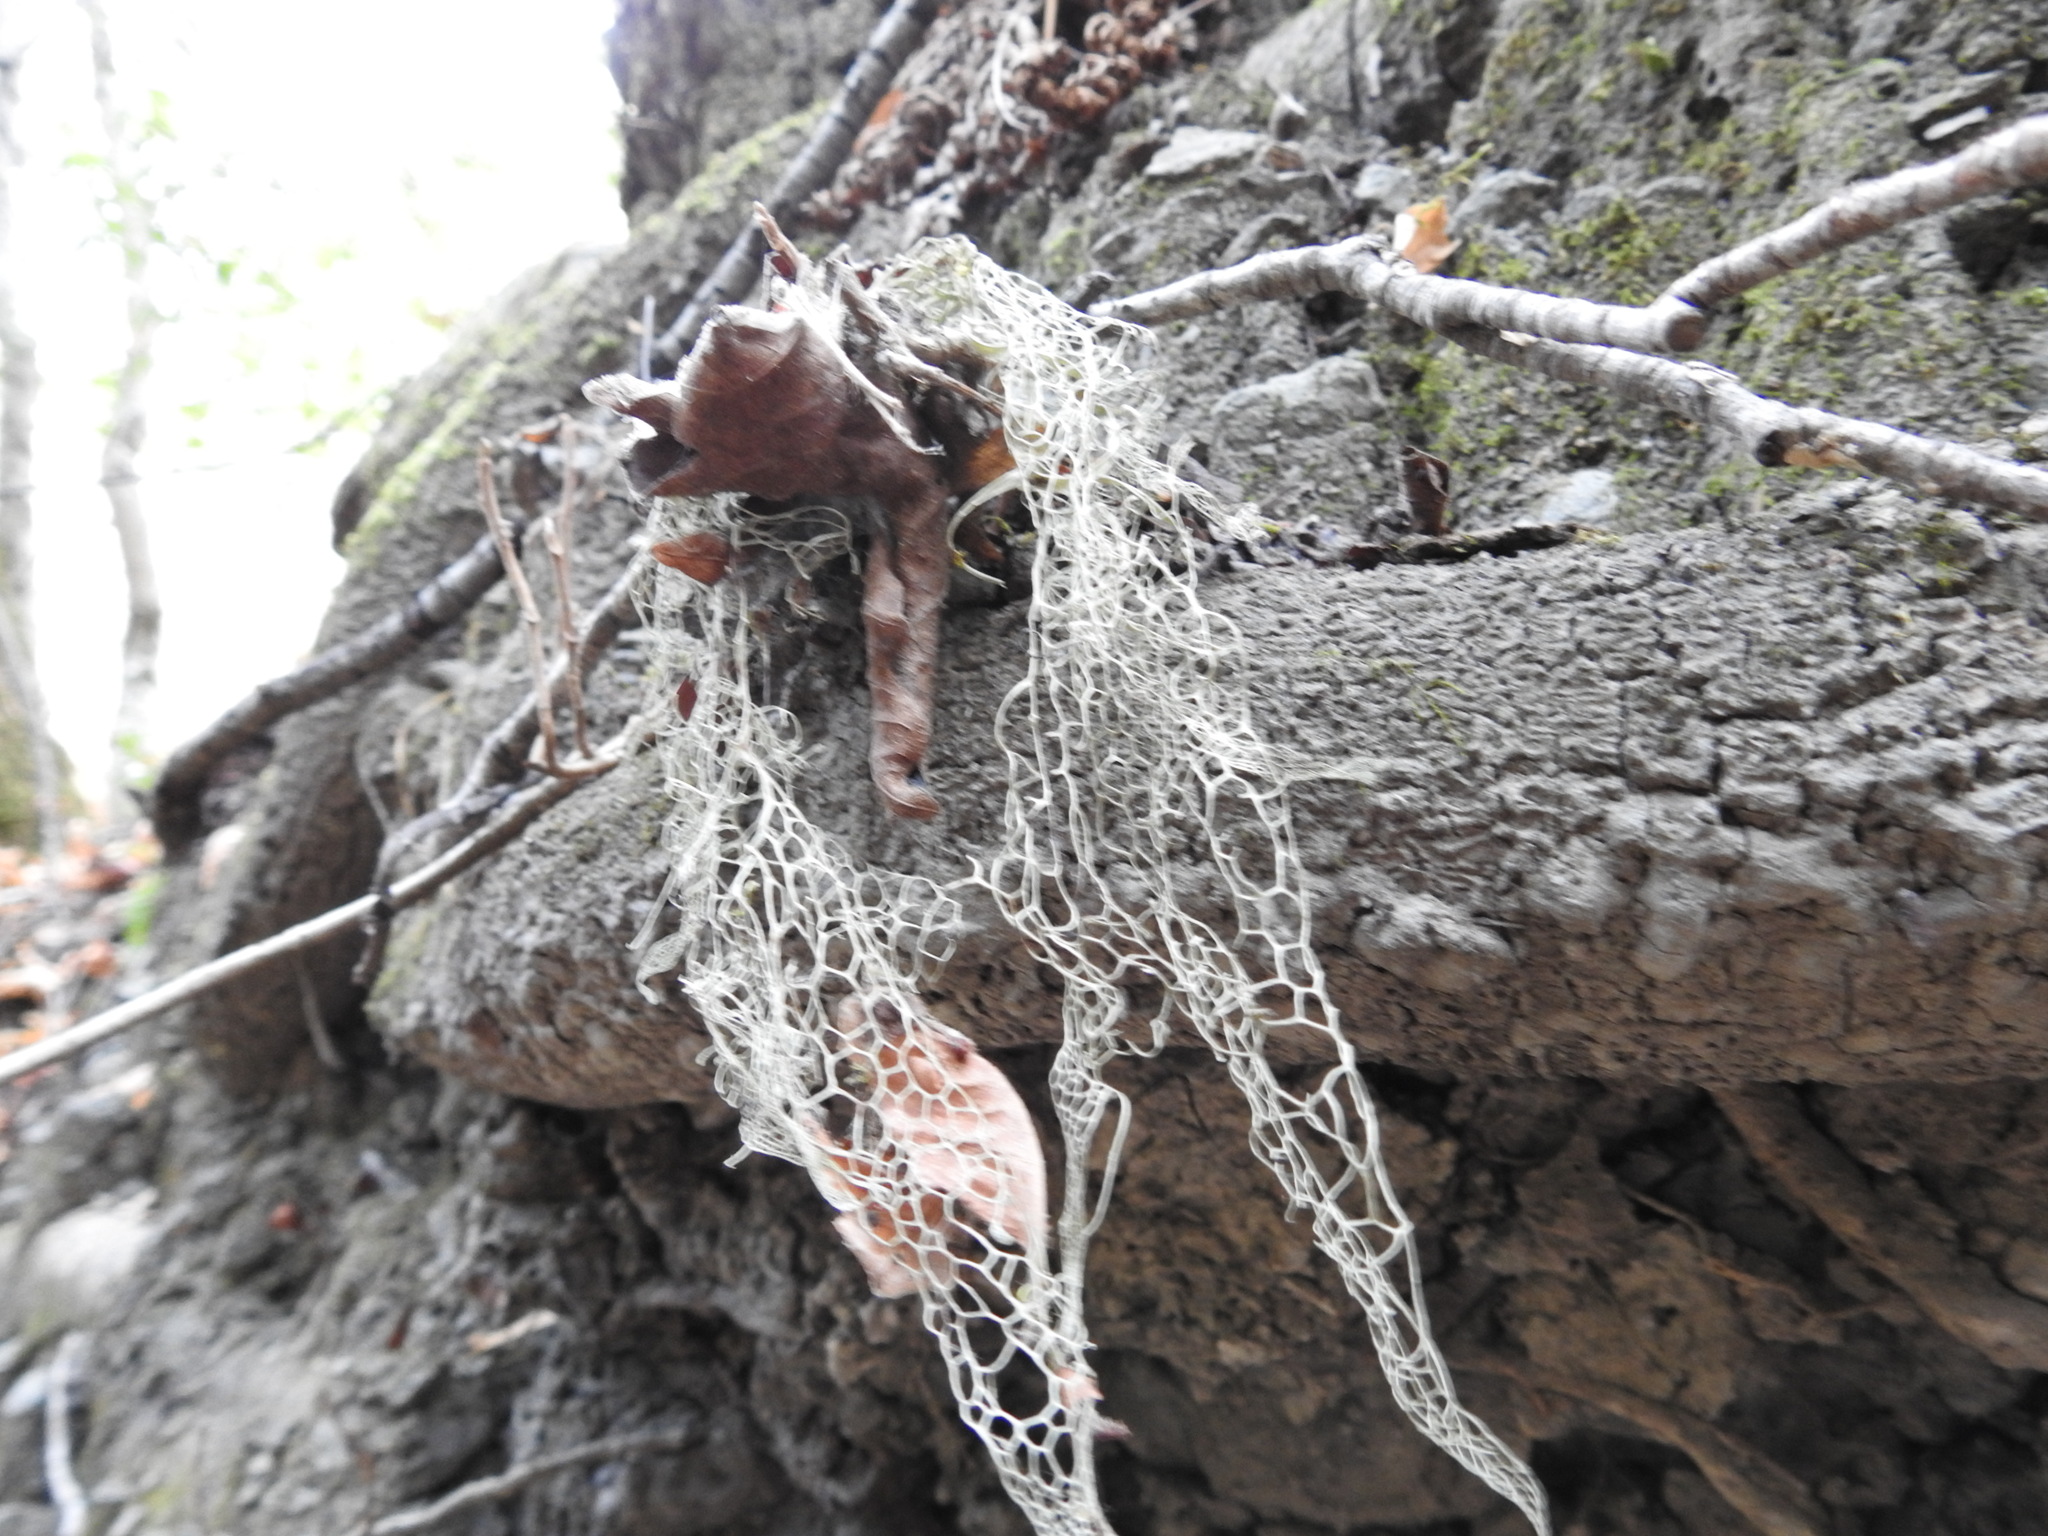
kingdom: Fungi
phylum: Ascomycota
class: Lecanoromycetes
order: Lecanorales
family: Ramalinaceae
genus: Ramalina
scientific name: Ramalina menziesii
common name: Lace lichen
